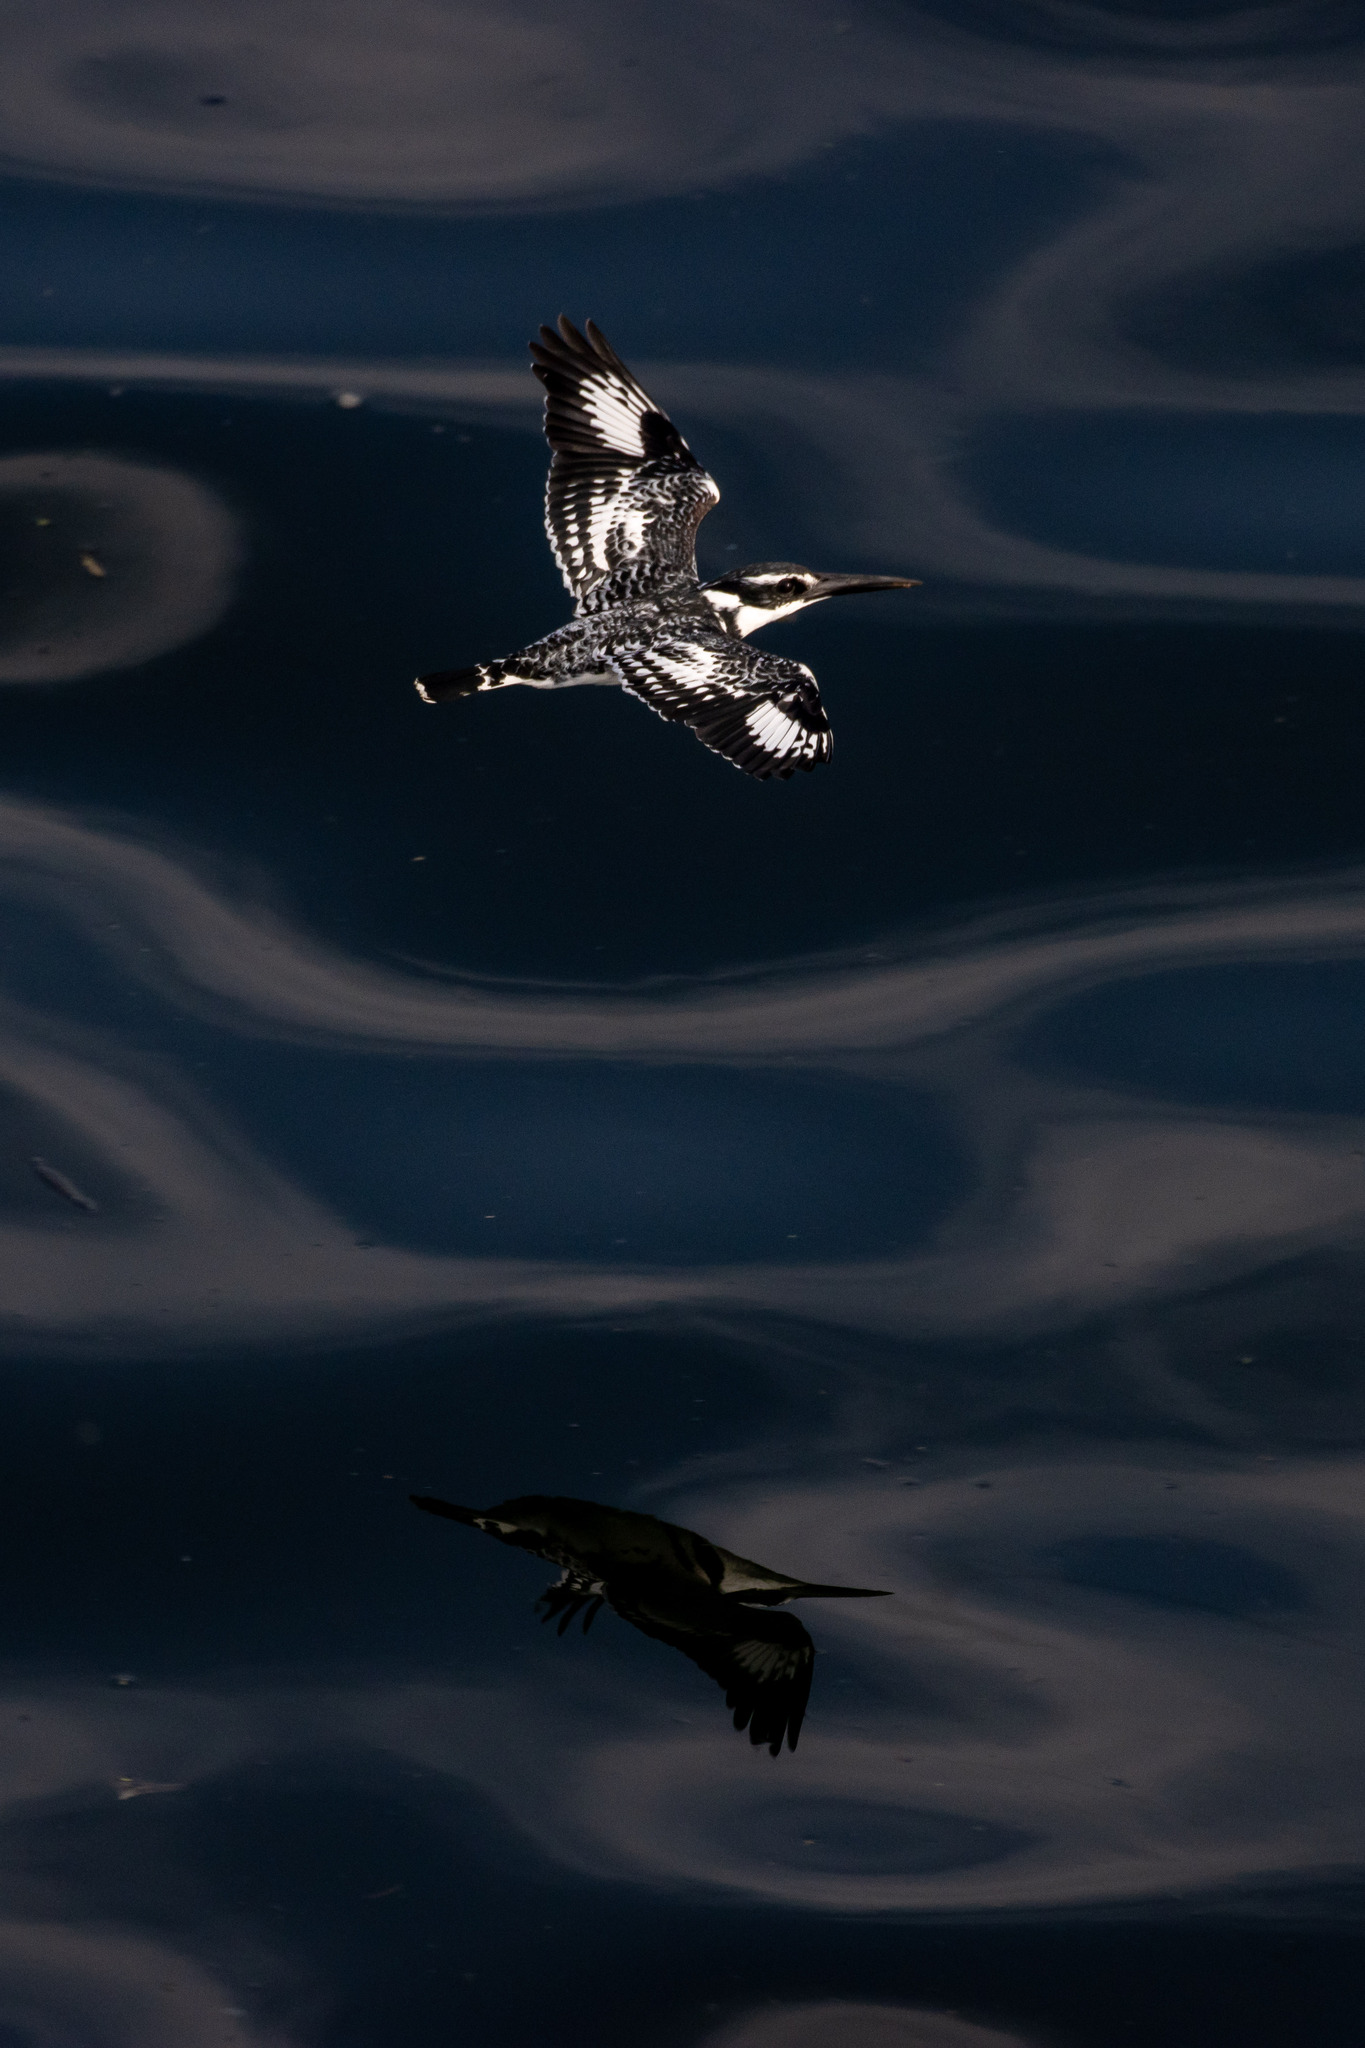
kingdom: Animalia
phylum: Chordata
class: Aves
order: Coraciiformes
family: Alcedinidae
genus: Ceryle
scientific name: Ceryle rudis
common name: Pied kingfisher
